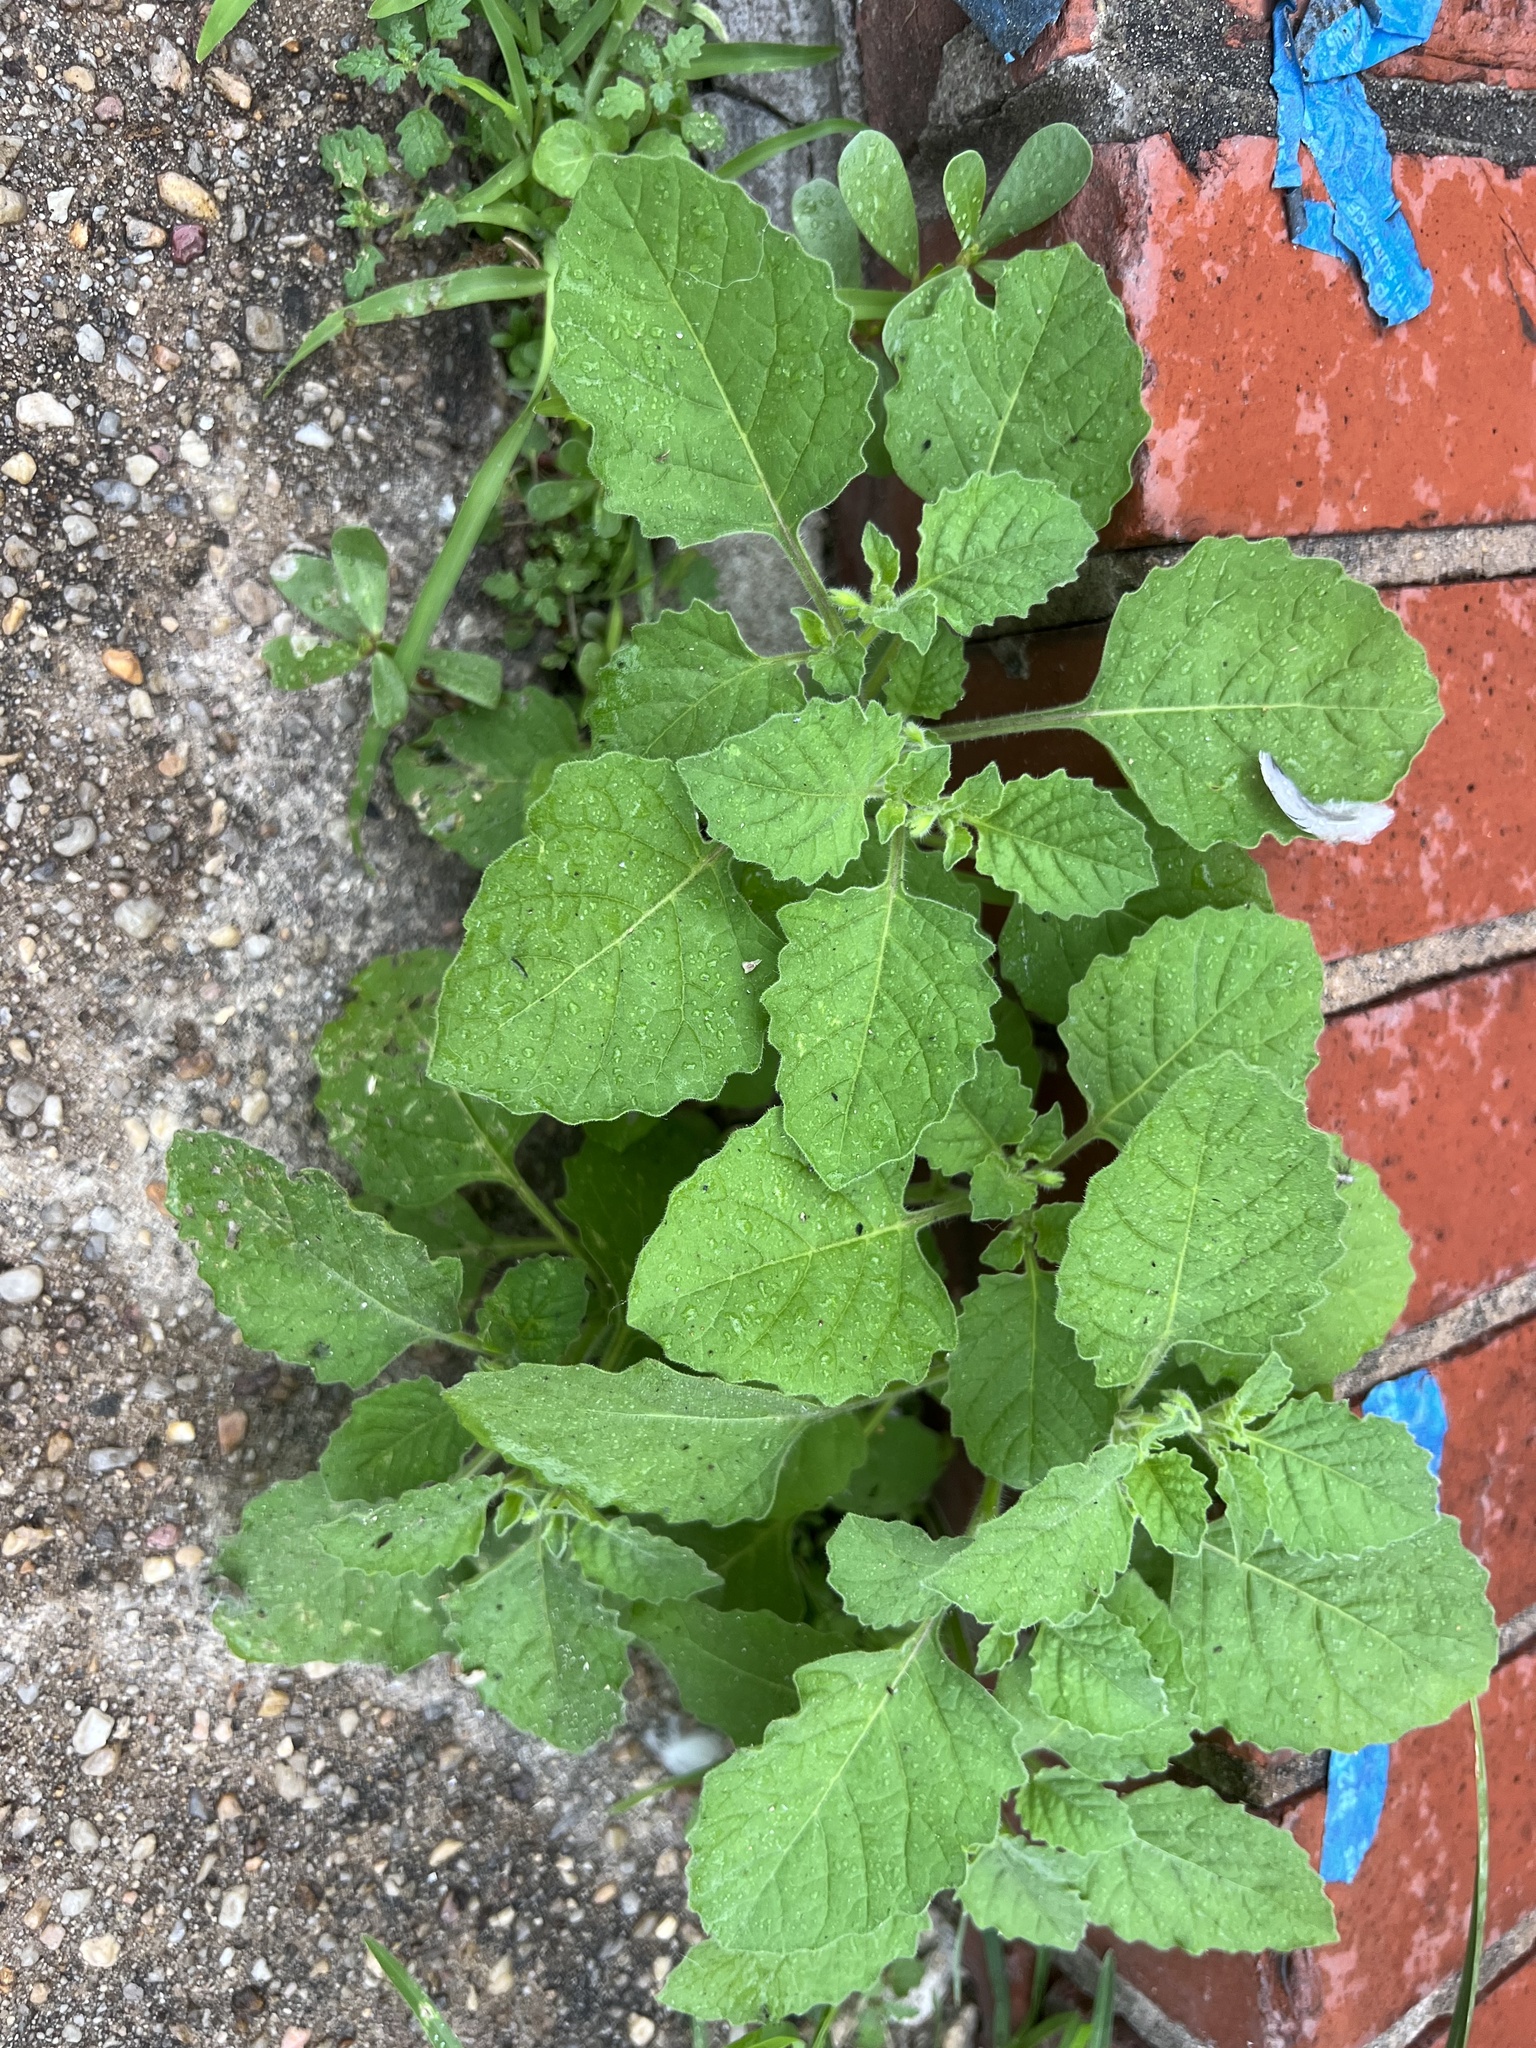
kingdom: Plantae
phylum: Tracheophyta
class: Magnoliopsida
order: Solanales
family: Solanaceae
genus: Solanum
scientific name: Solanum sarrachoides
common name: Leafy-fruited nightshade
